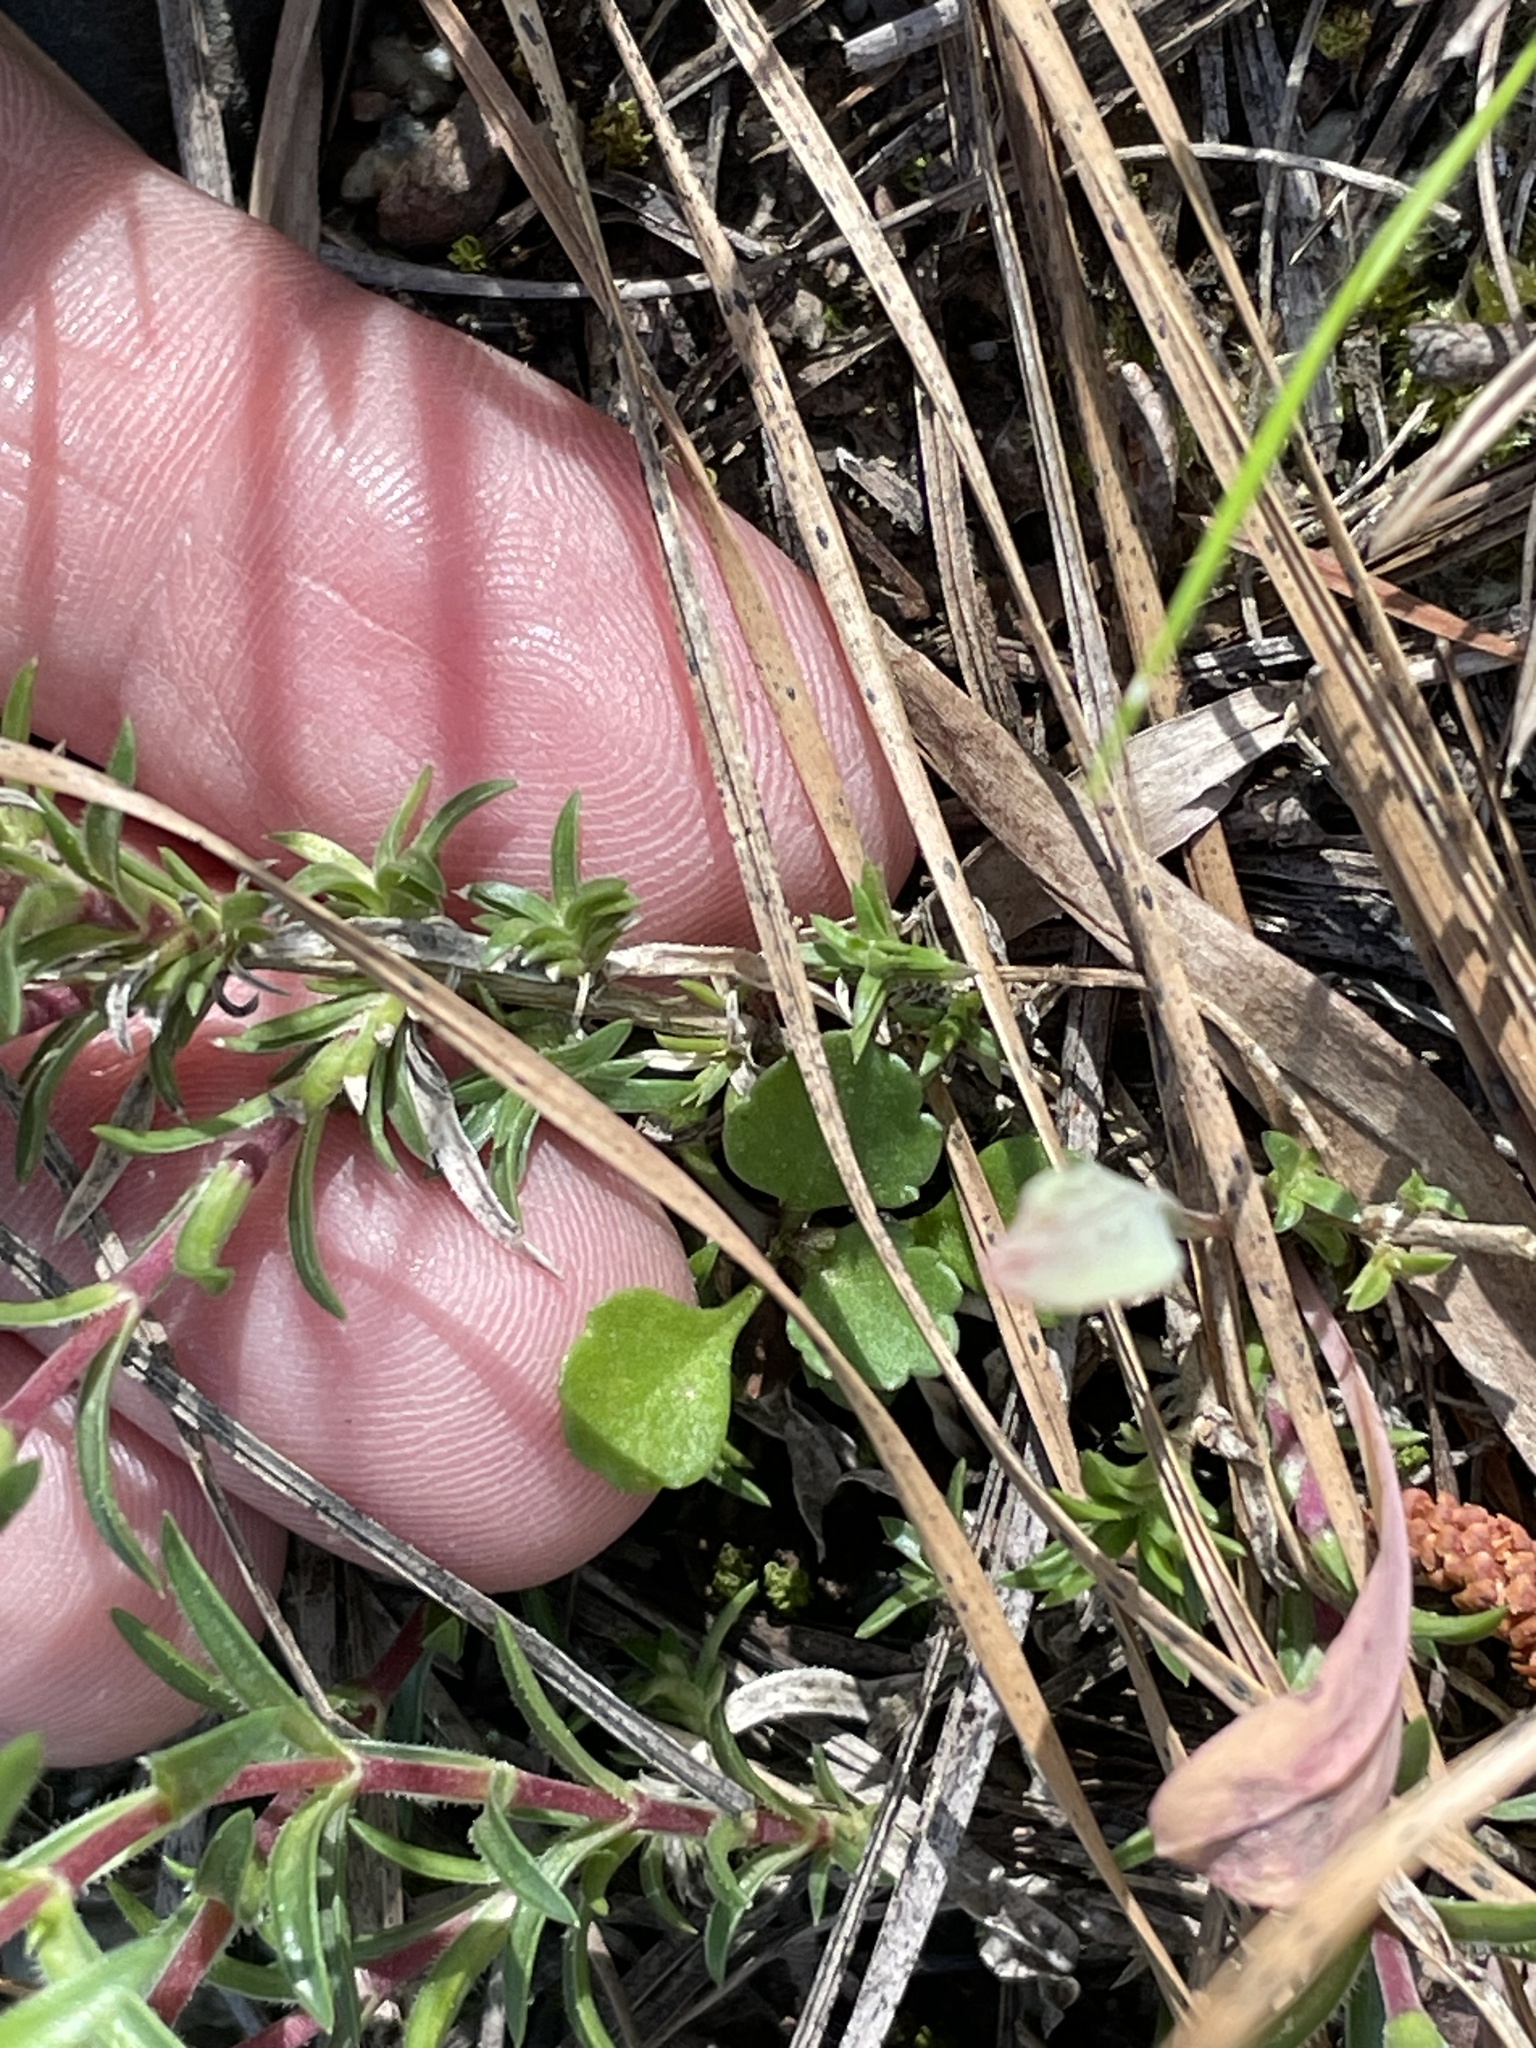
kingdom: Plantae
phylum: Tracheophyta
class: Magnoliopsida
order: Ericales
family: Polemoniaceae
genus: Phlox
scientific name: Phlox nivalis
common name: Trailing phlox
